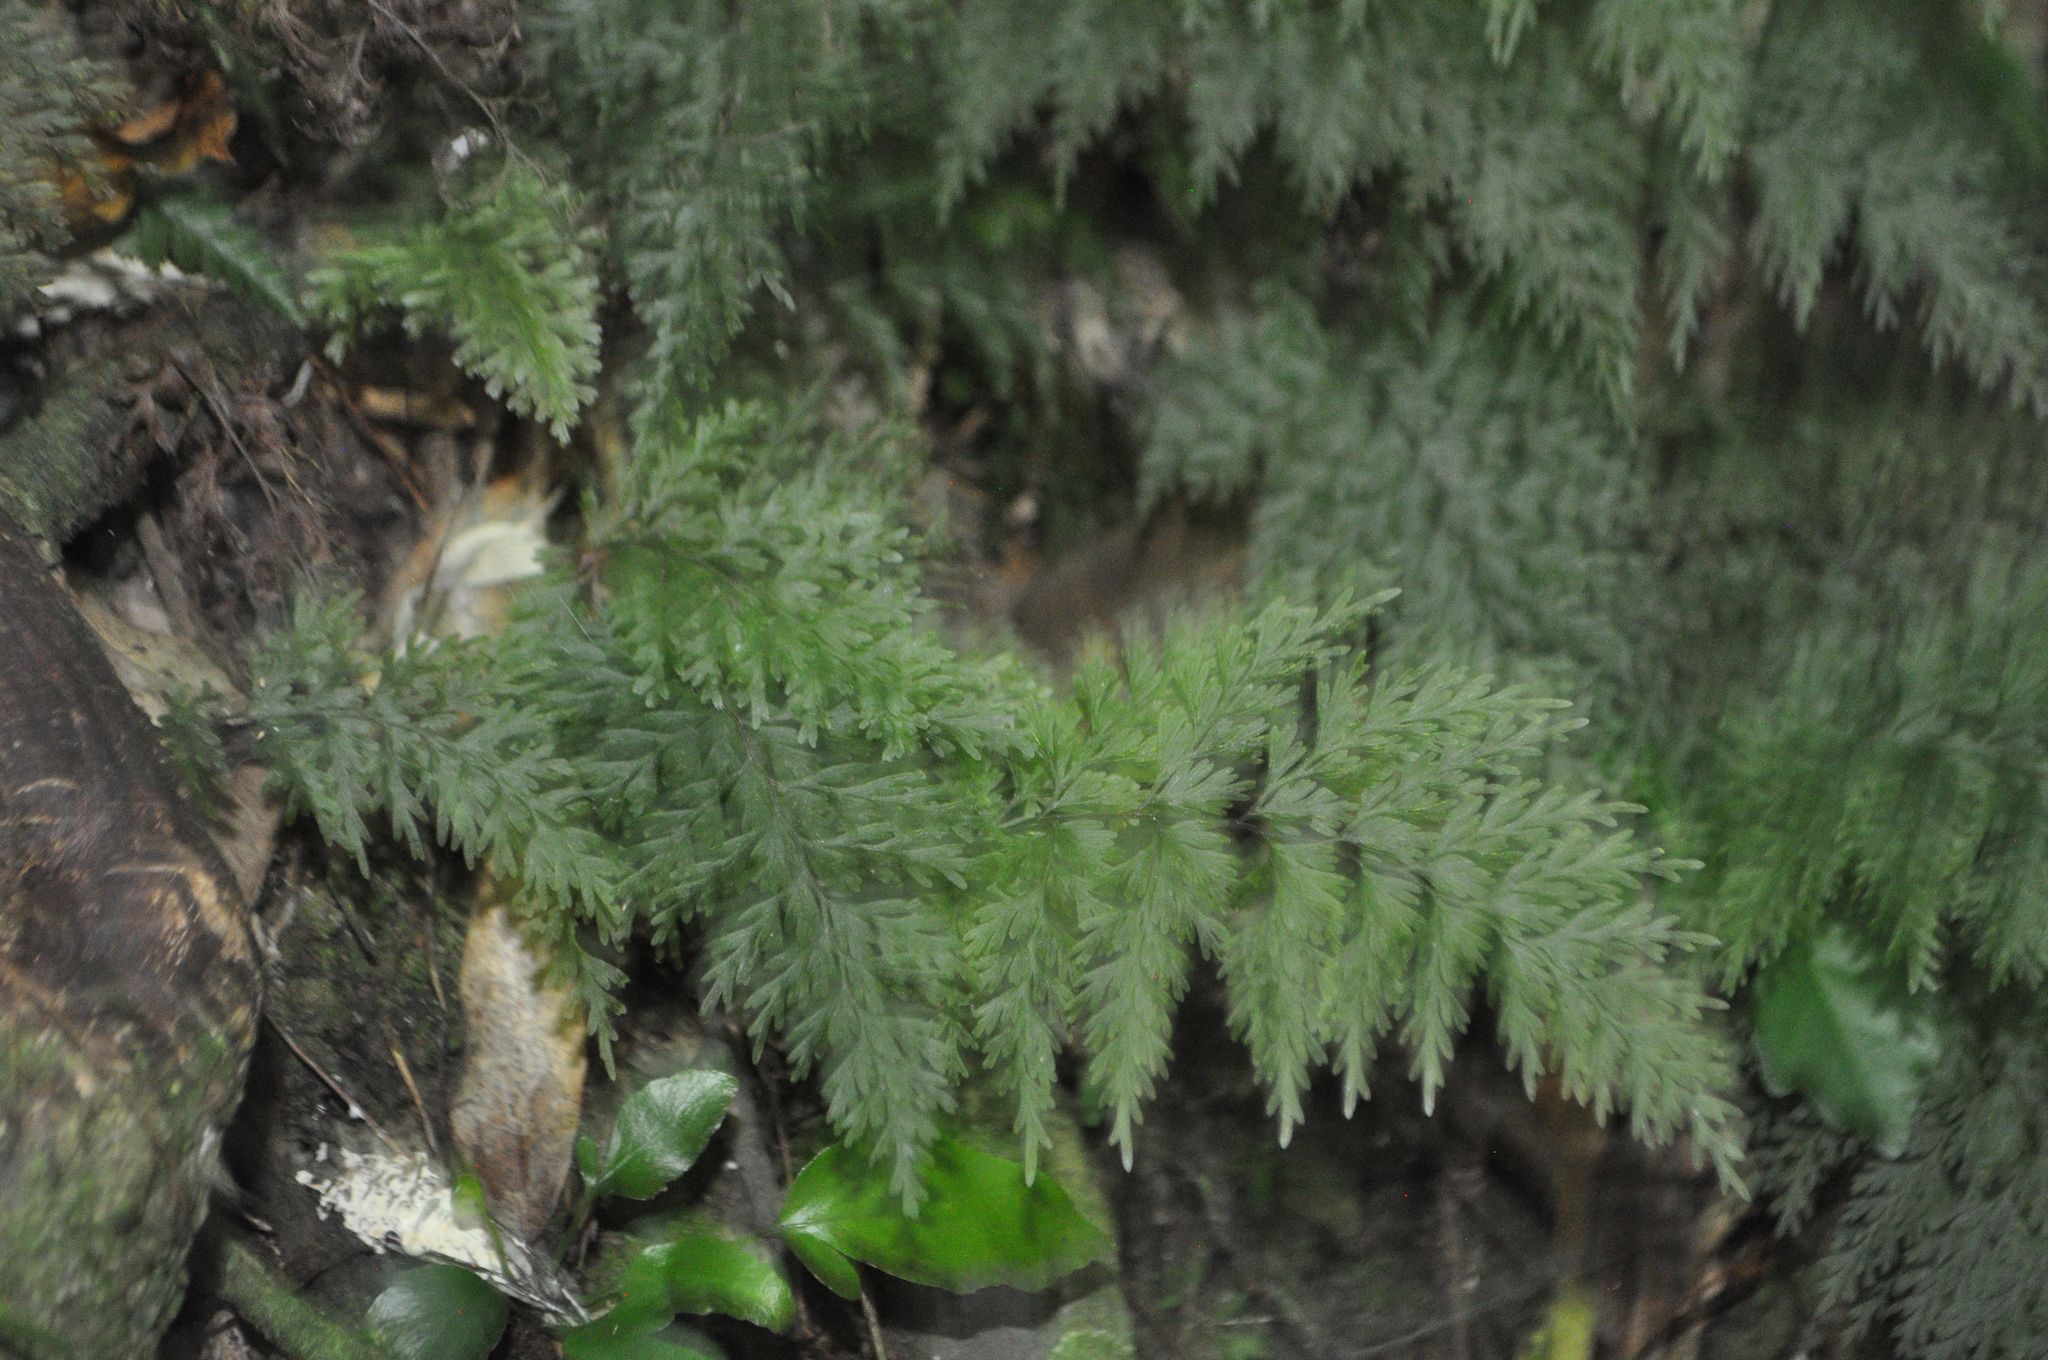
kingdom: Plantae
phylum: Tracheophyta
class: Polypodiopsida
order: Hymenophyllales
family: Hymenophyllaceae
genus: Hymenophyllum
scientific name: Hymenophyllum demissum
